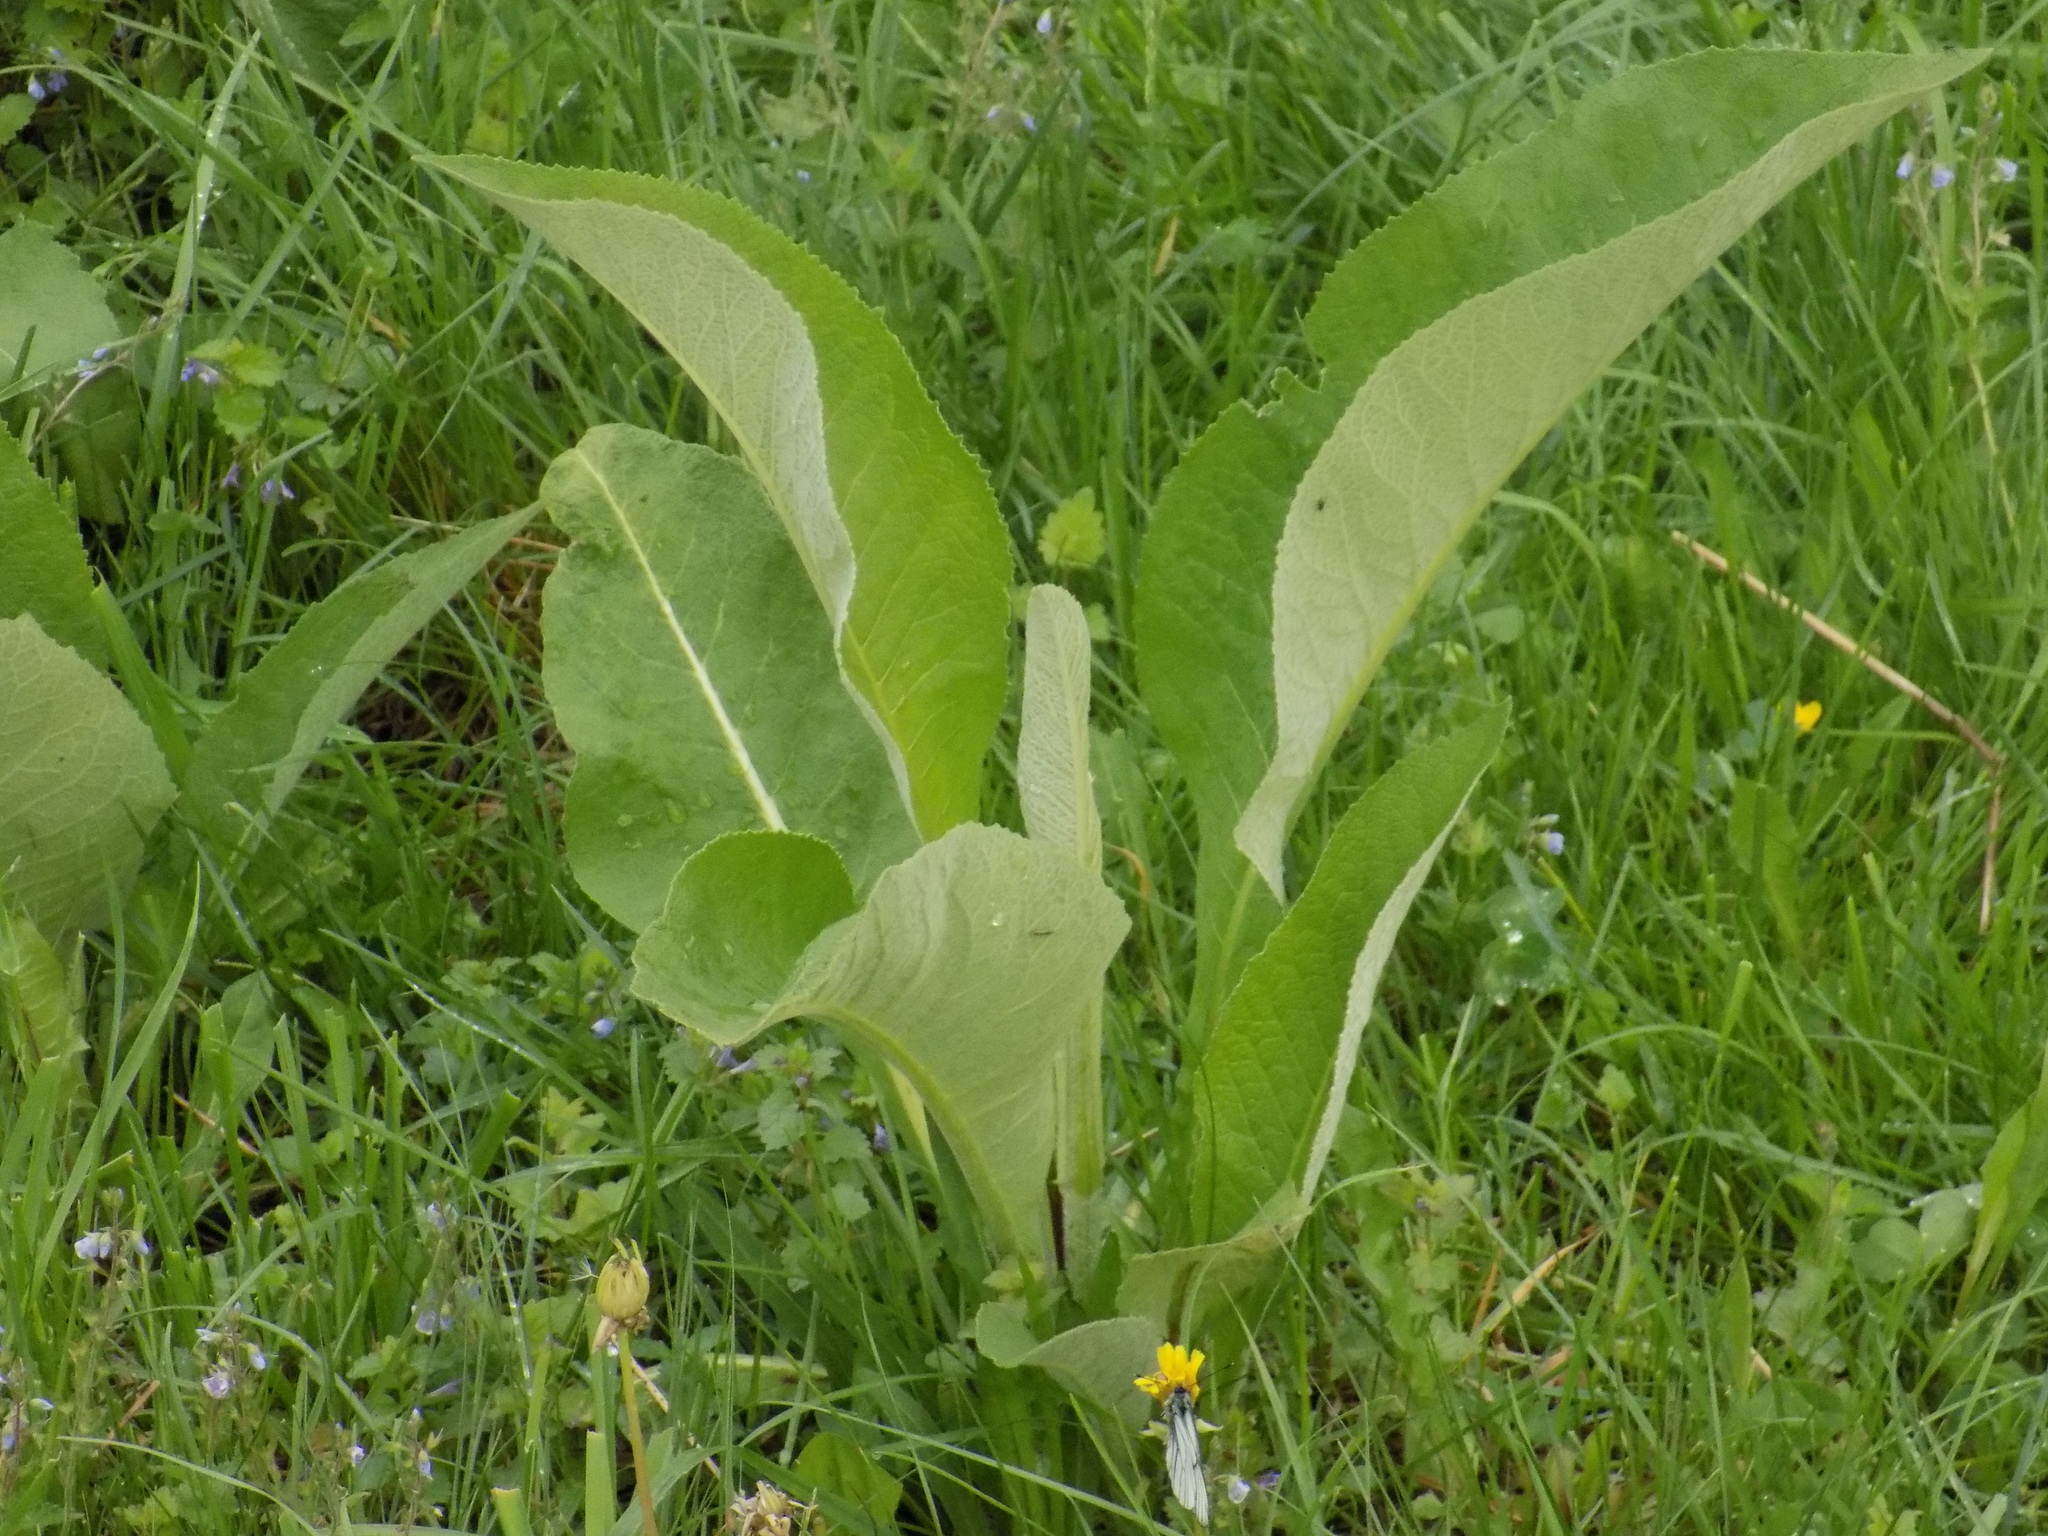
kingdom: Plantae
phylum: Tracheophyta
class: Magnoliopsida
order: Asterales
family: Asteraceae
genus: Inula
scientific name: Inula helenium
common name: Elecampane
